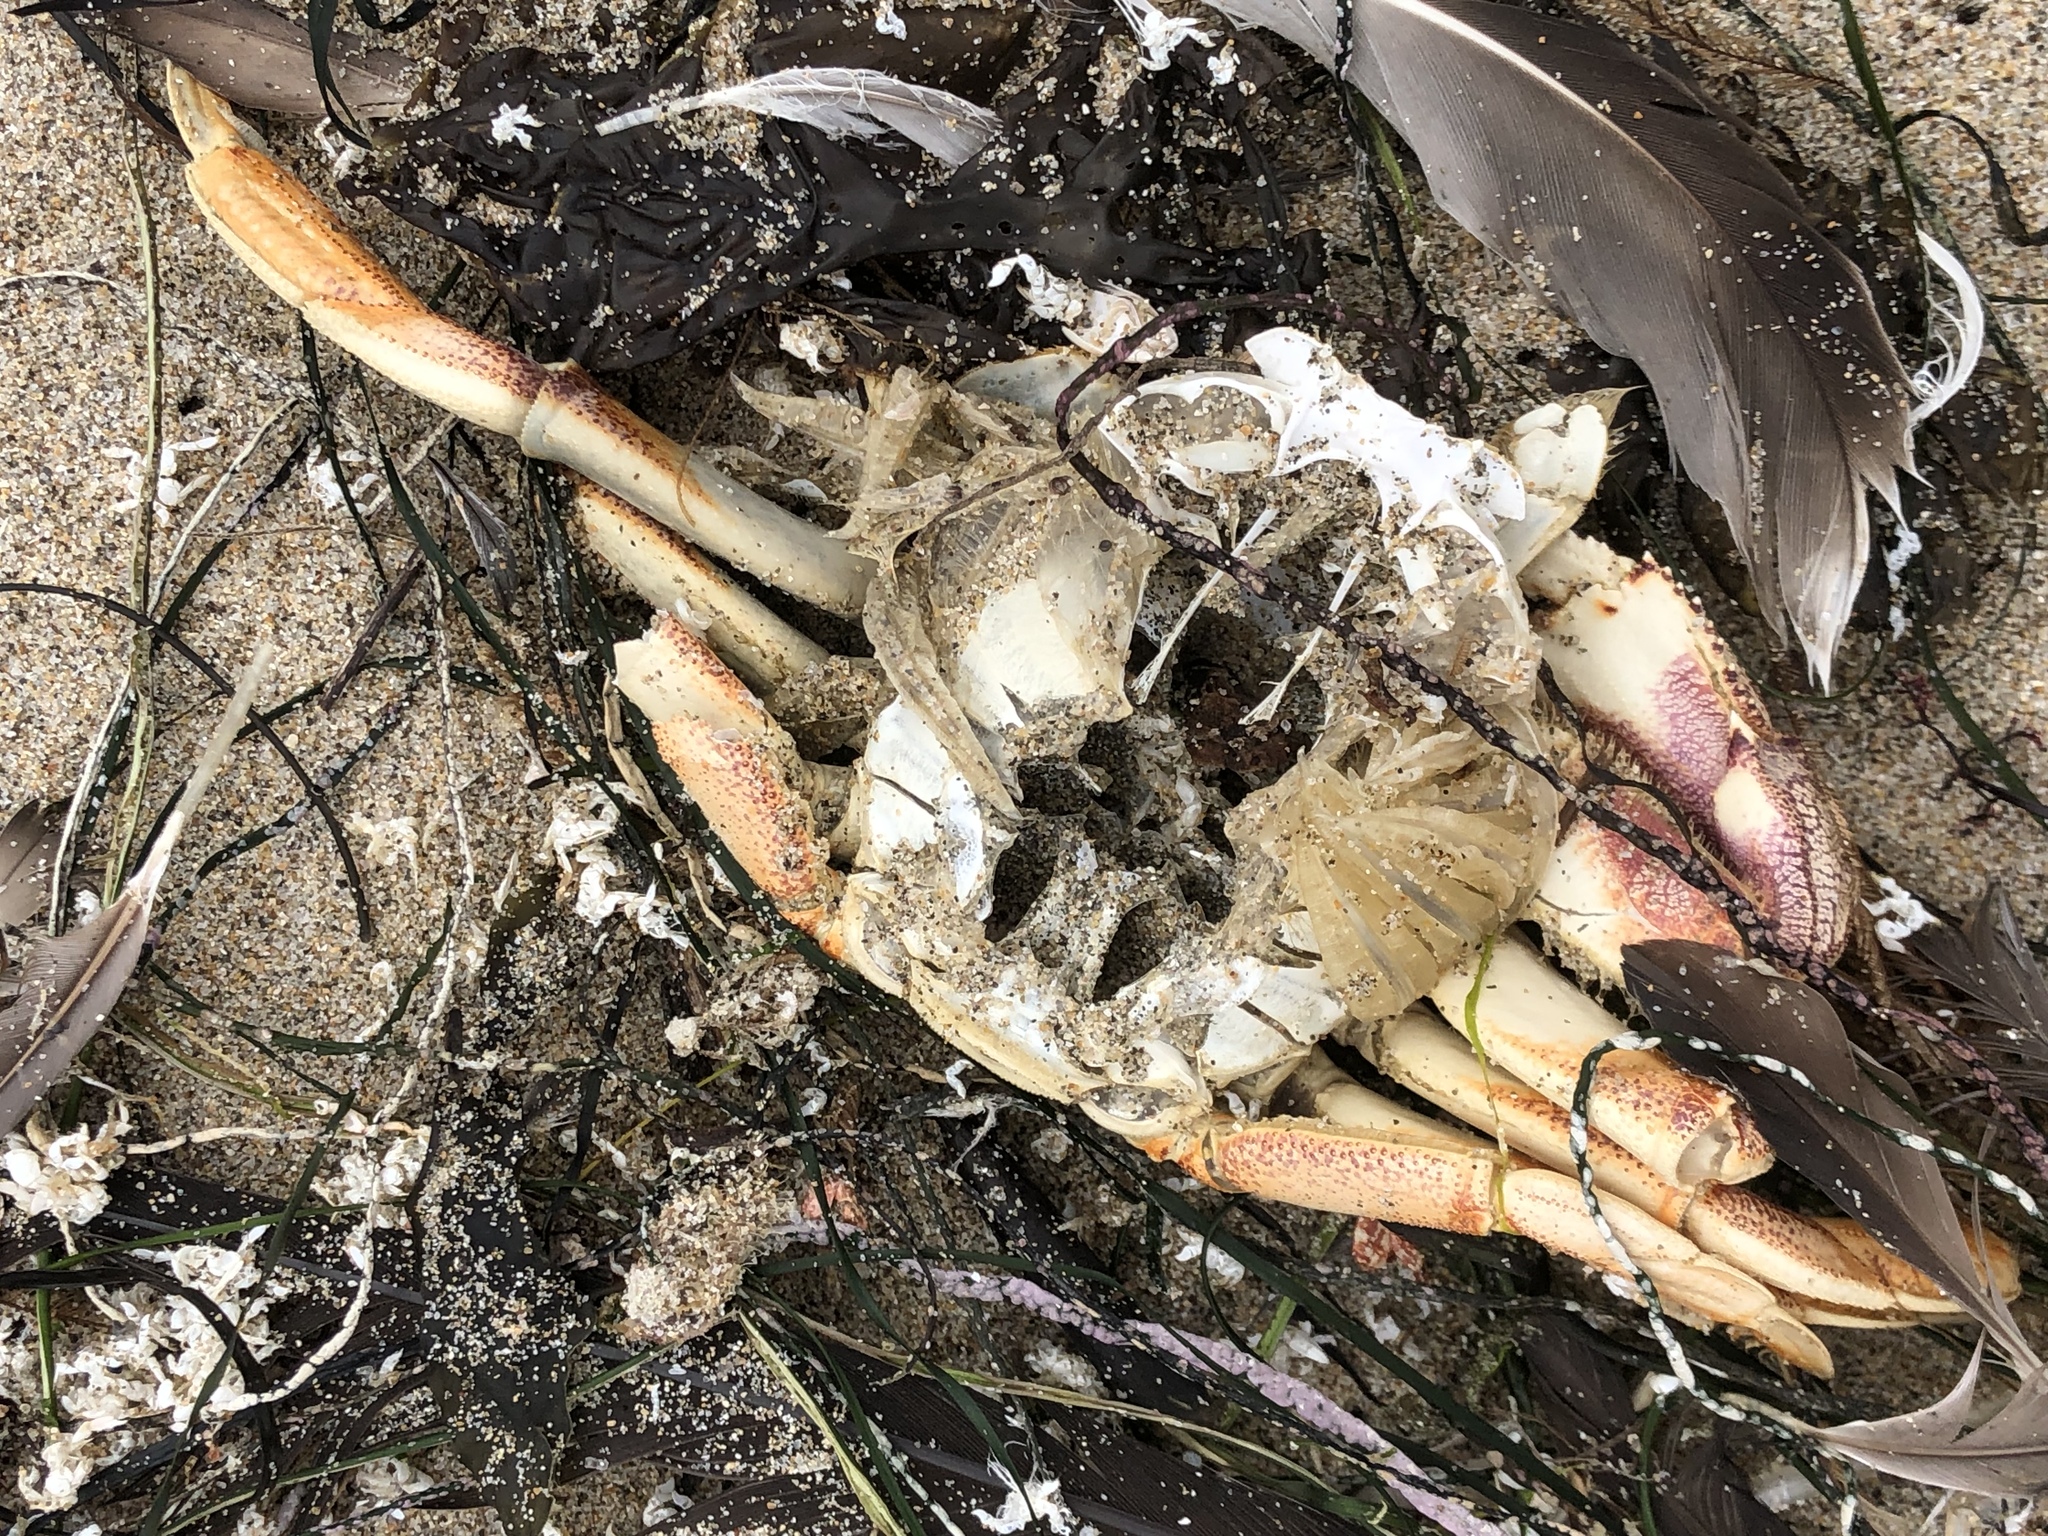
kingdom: Animalia
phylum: Arthropoda
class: Malacostraca
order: Decapoda
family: Cancridae
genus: Metacarcinus
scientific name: Metacarcinus magister
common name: Californian crab
